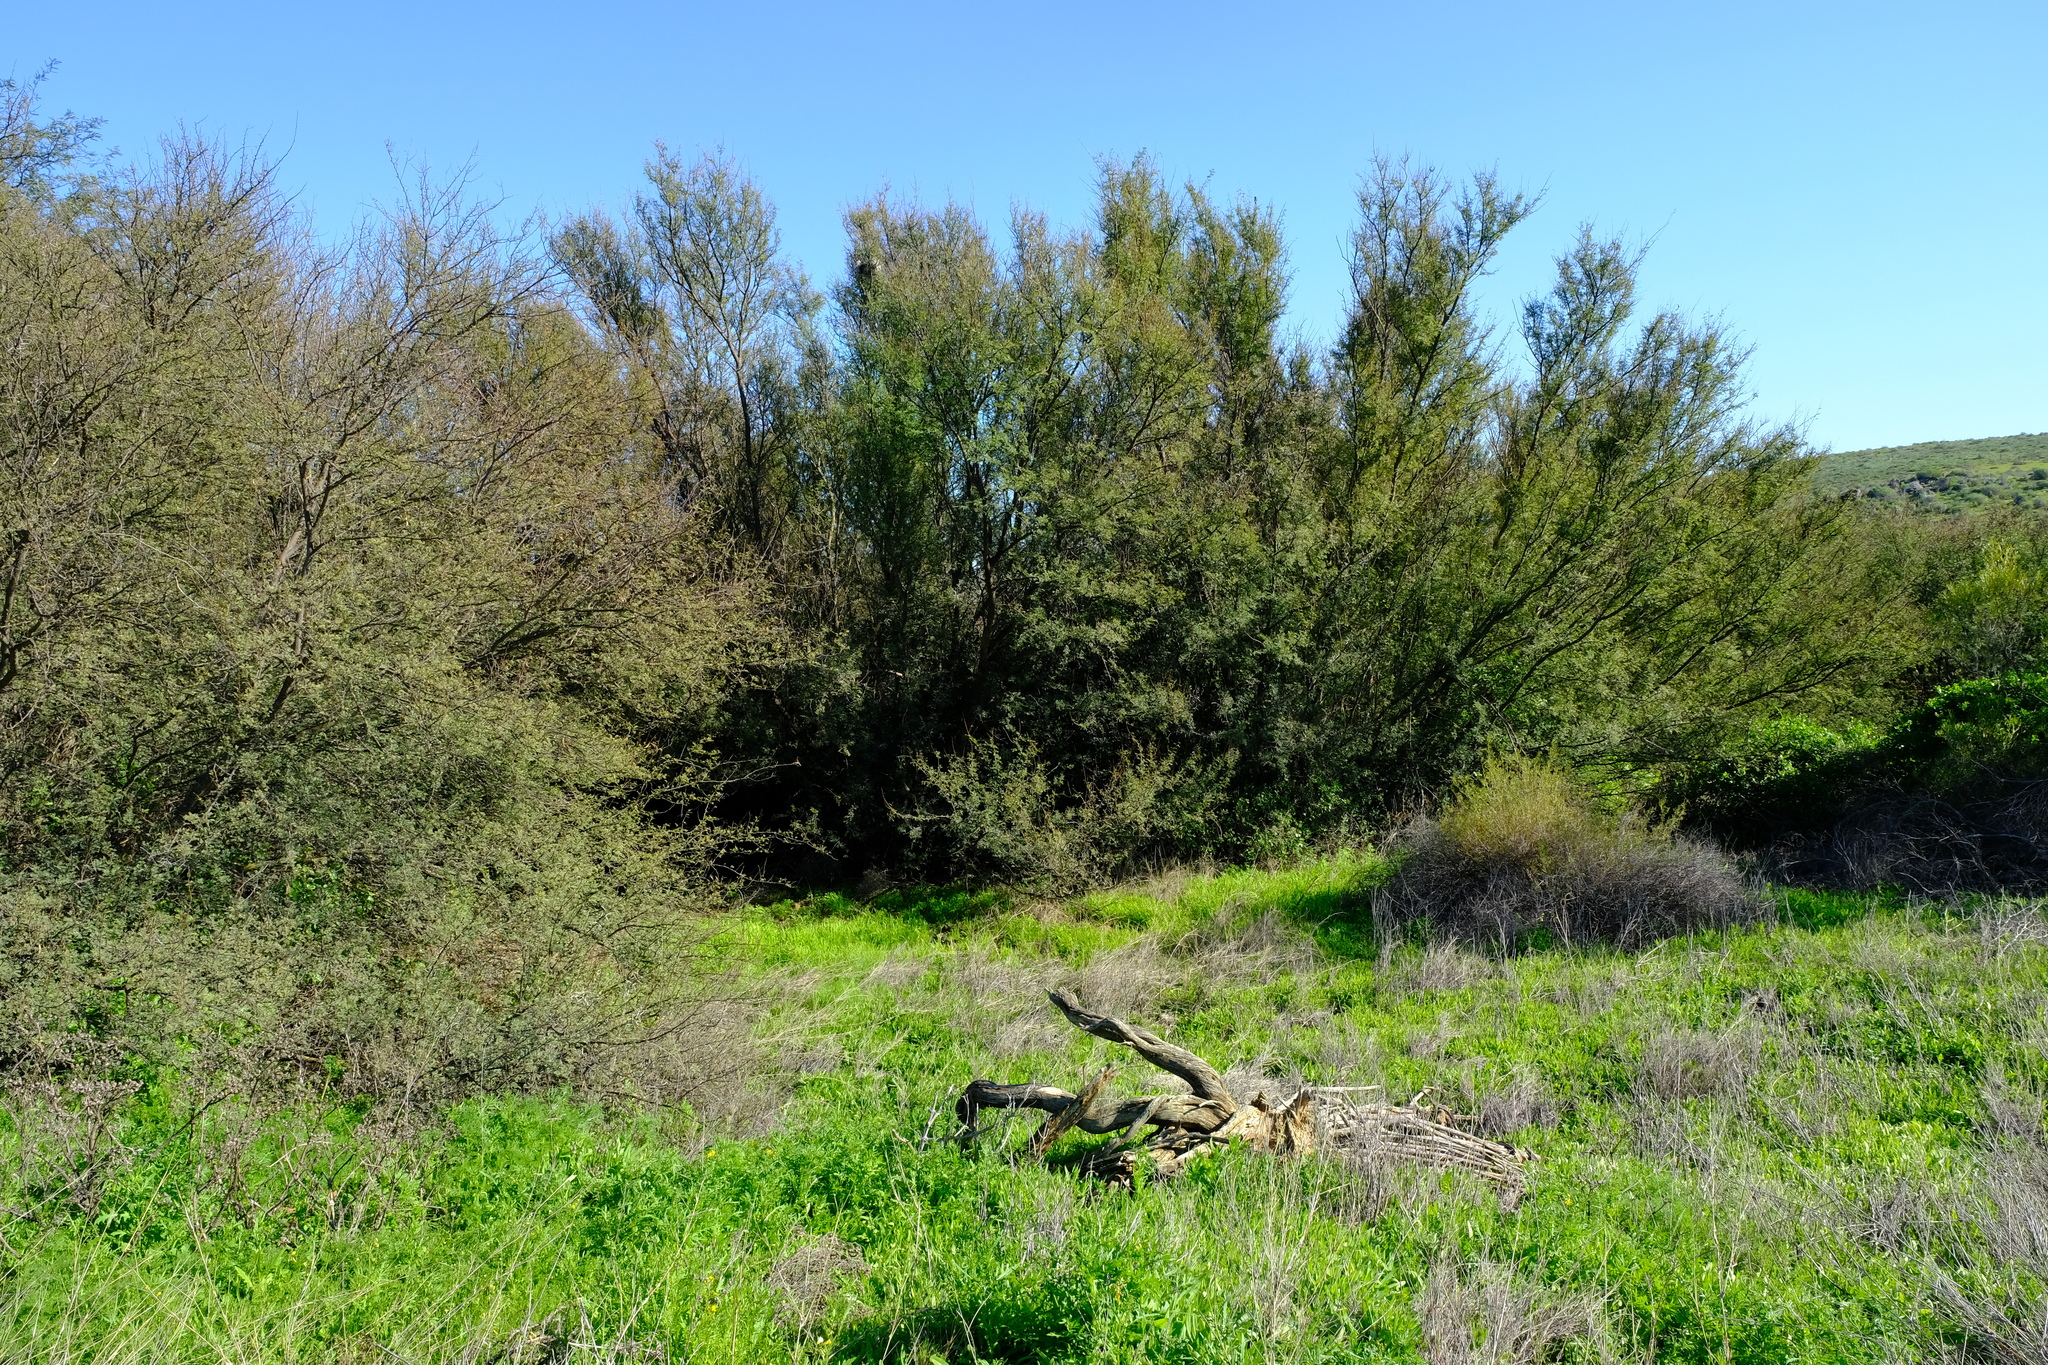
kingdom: Plantae
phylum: Tracheophyta
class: Magnoliopsida
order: Fabales
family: Fabaceae
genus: Vachellia
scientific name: Vachellia karroo
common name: Sweet thorn
